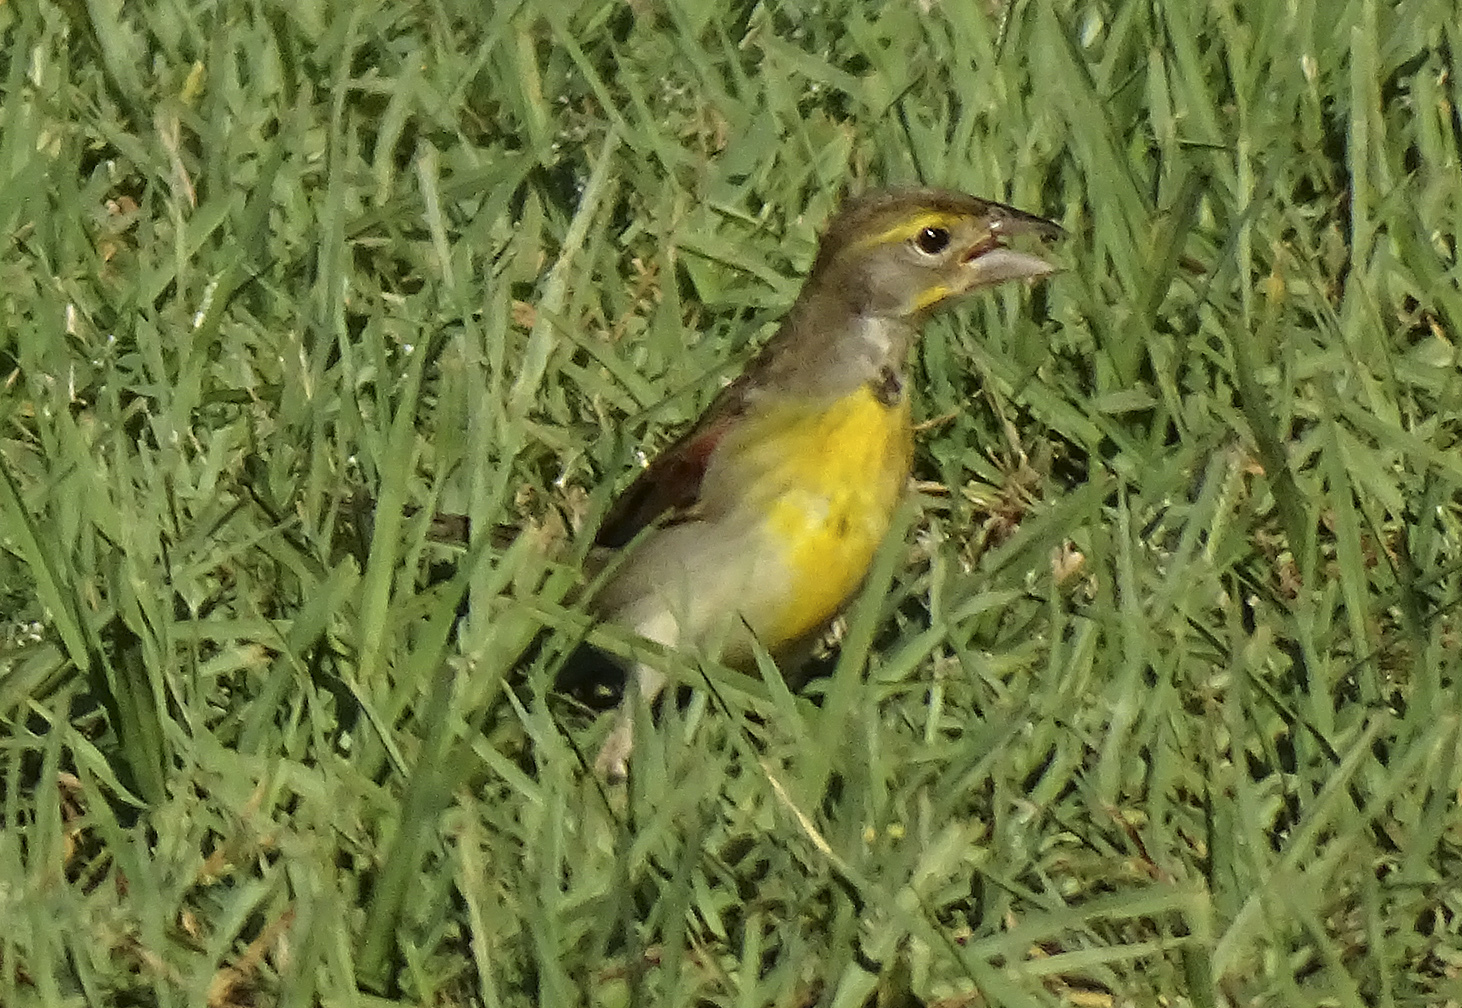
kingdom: Animalia
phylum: Chordata
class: Aves
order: Passeriformes
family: Cardinalidae
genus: Spiza
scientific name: Spiza americana
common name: Dickcissel
